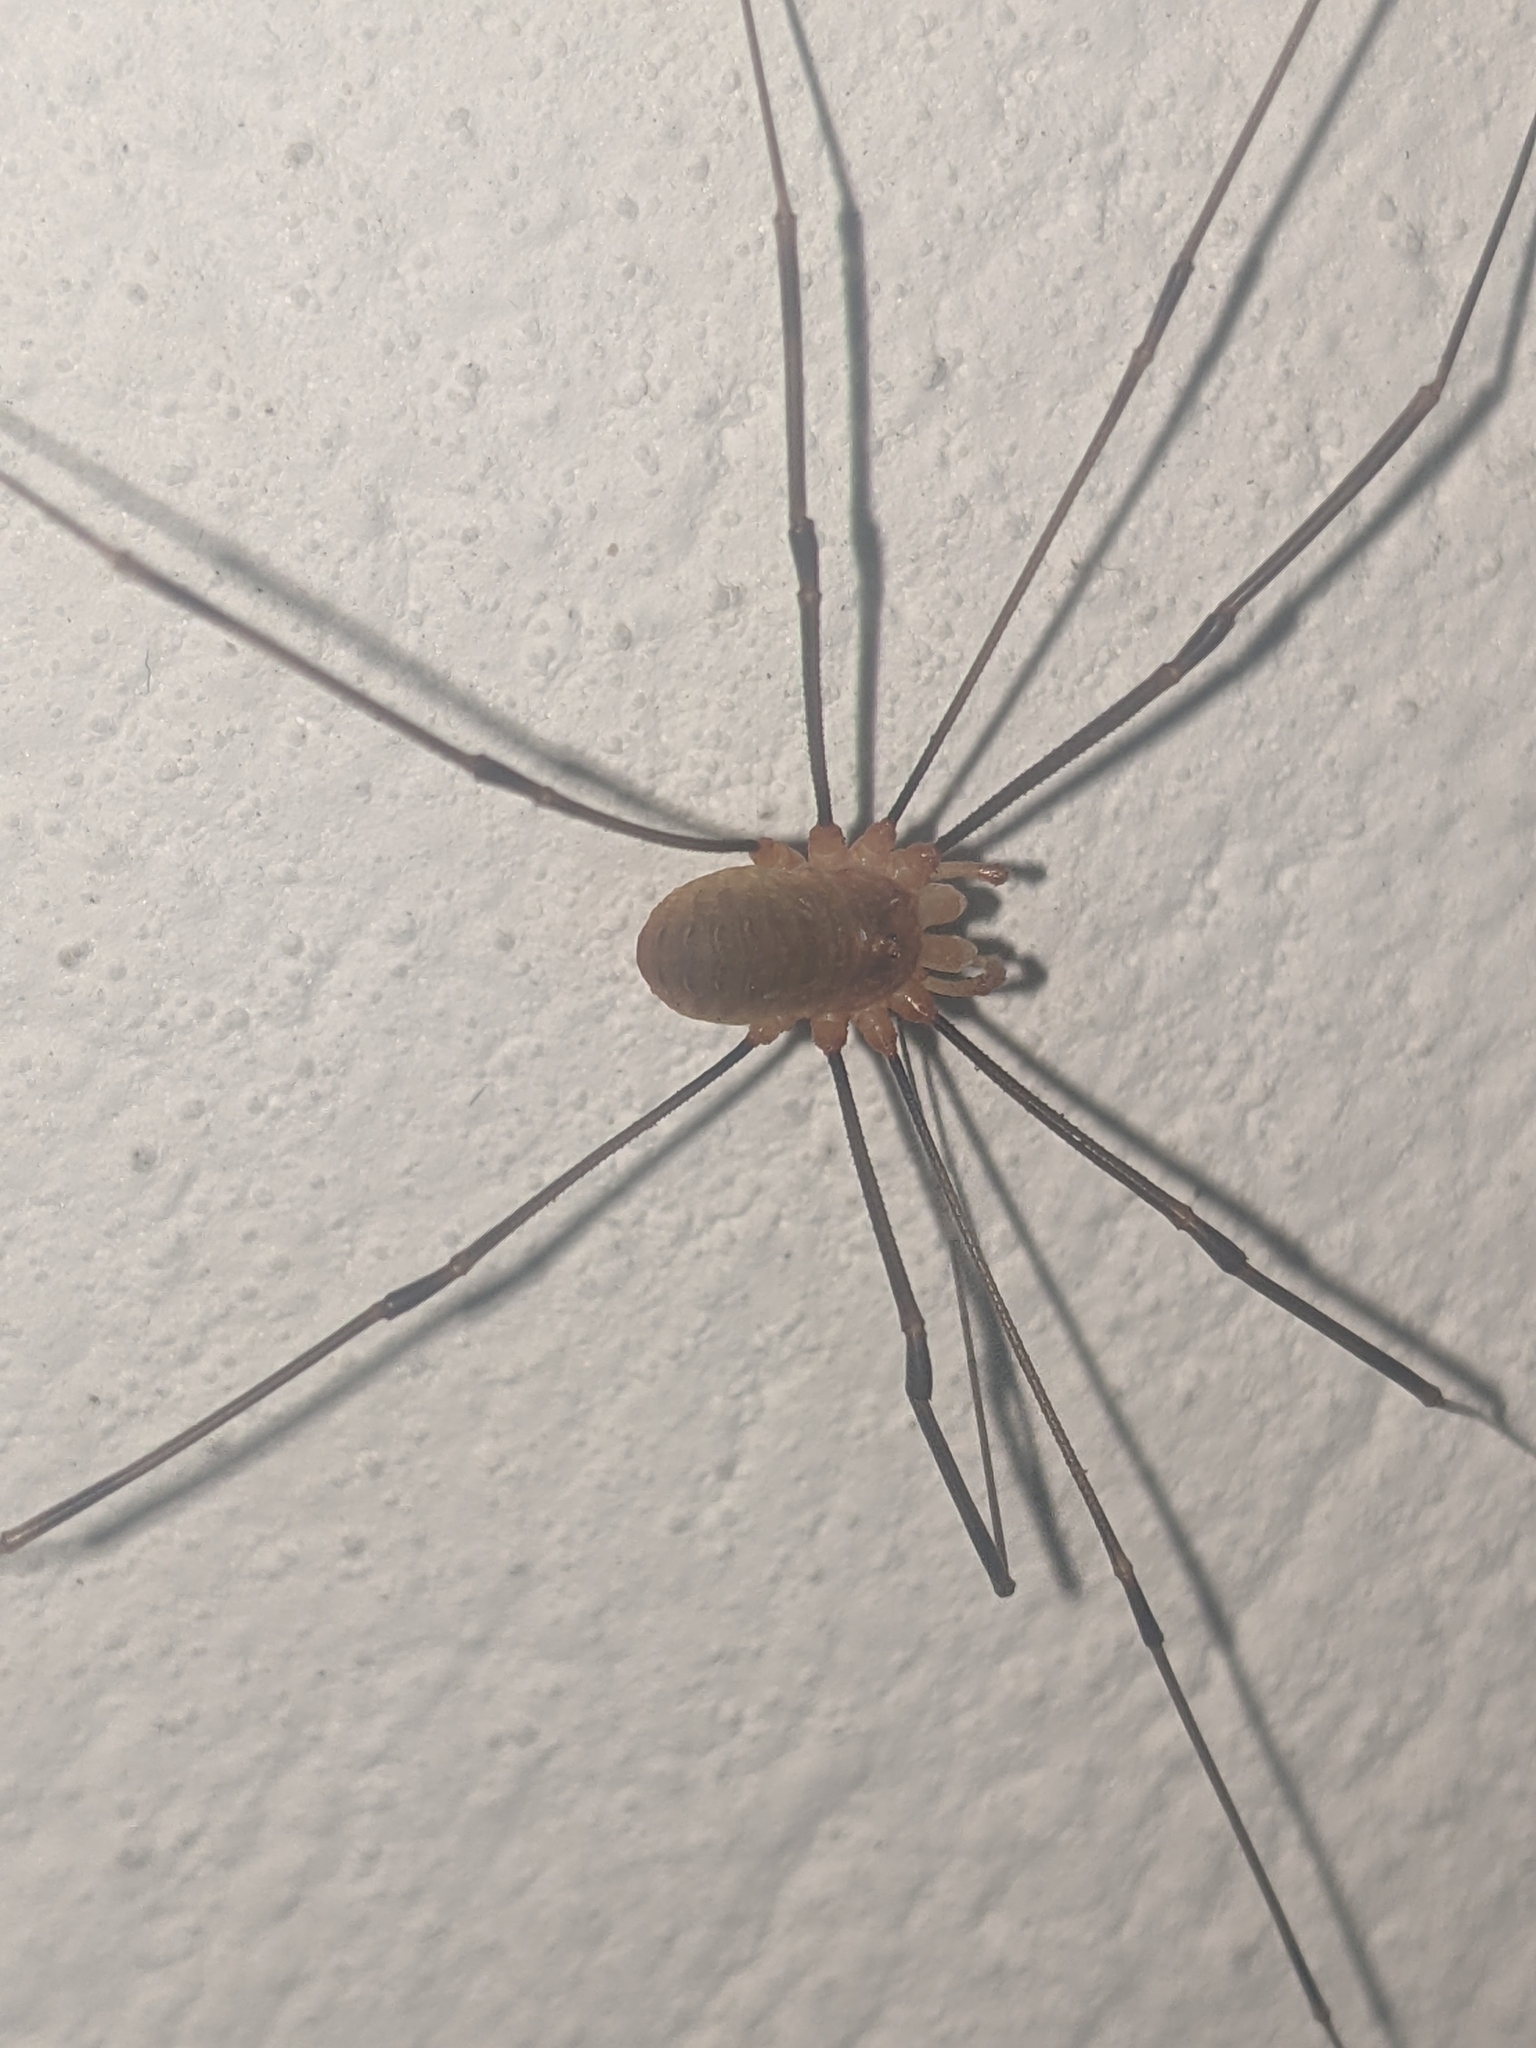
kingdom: Animalia
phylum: Arthropoda
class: Arachnida
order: Opiliones
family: Phalangiidae
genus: Opilio
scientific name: Opilio canestrinii
